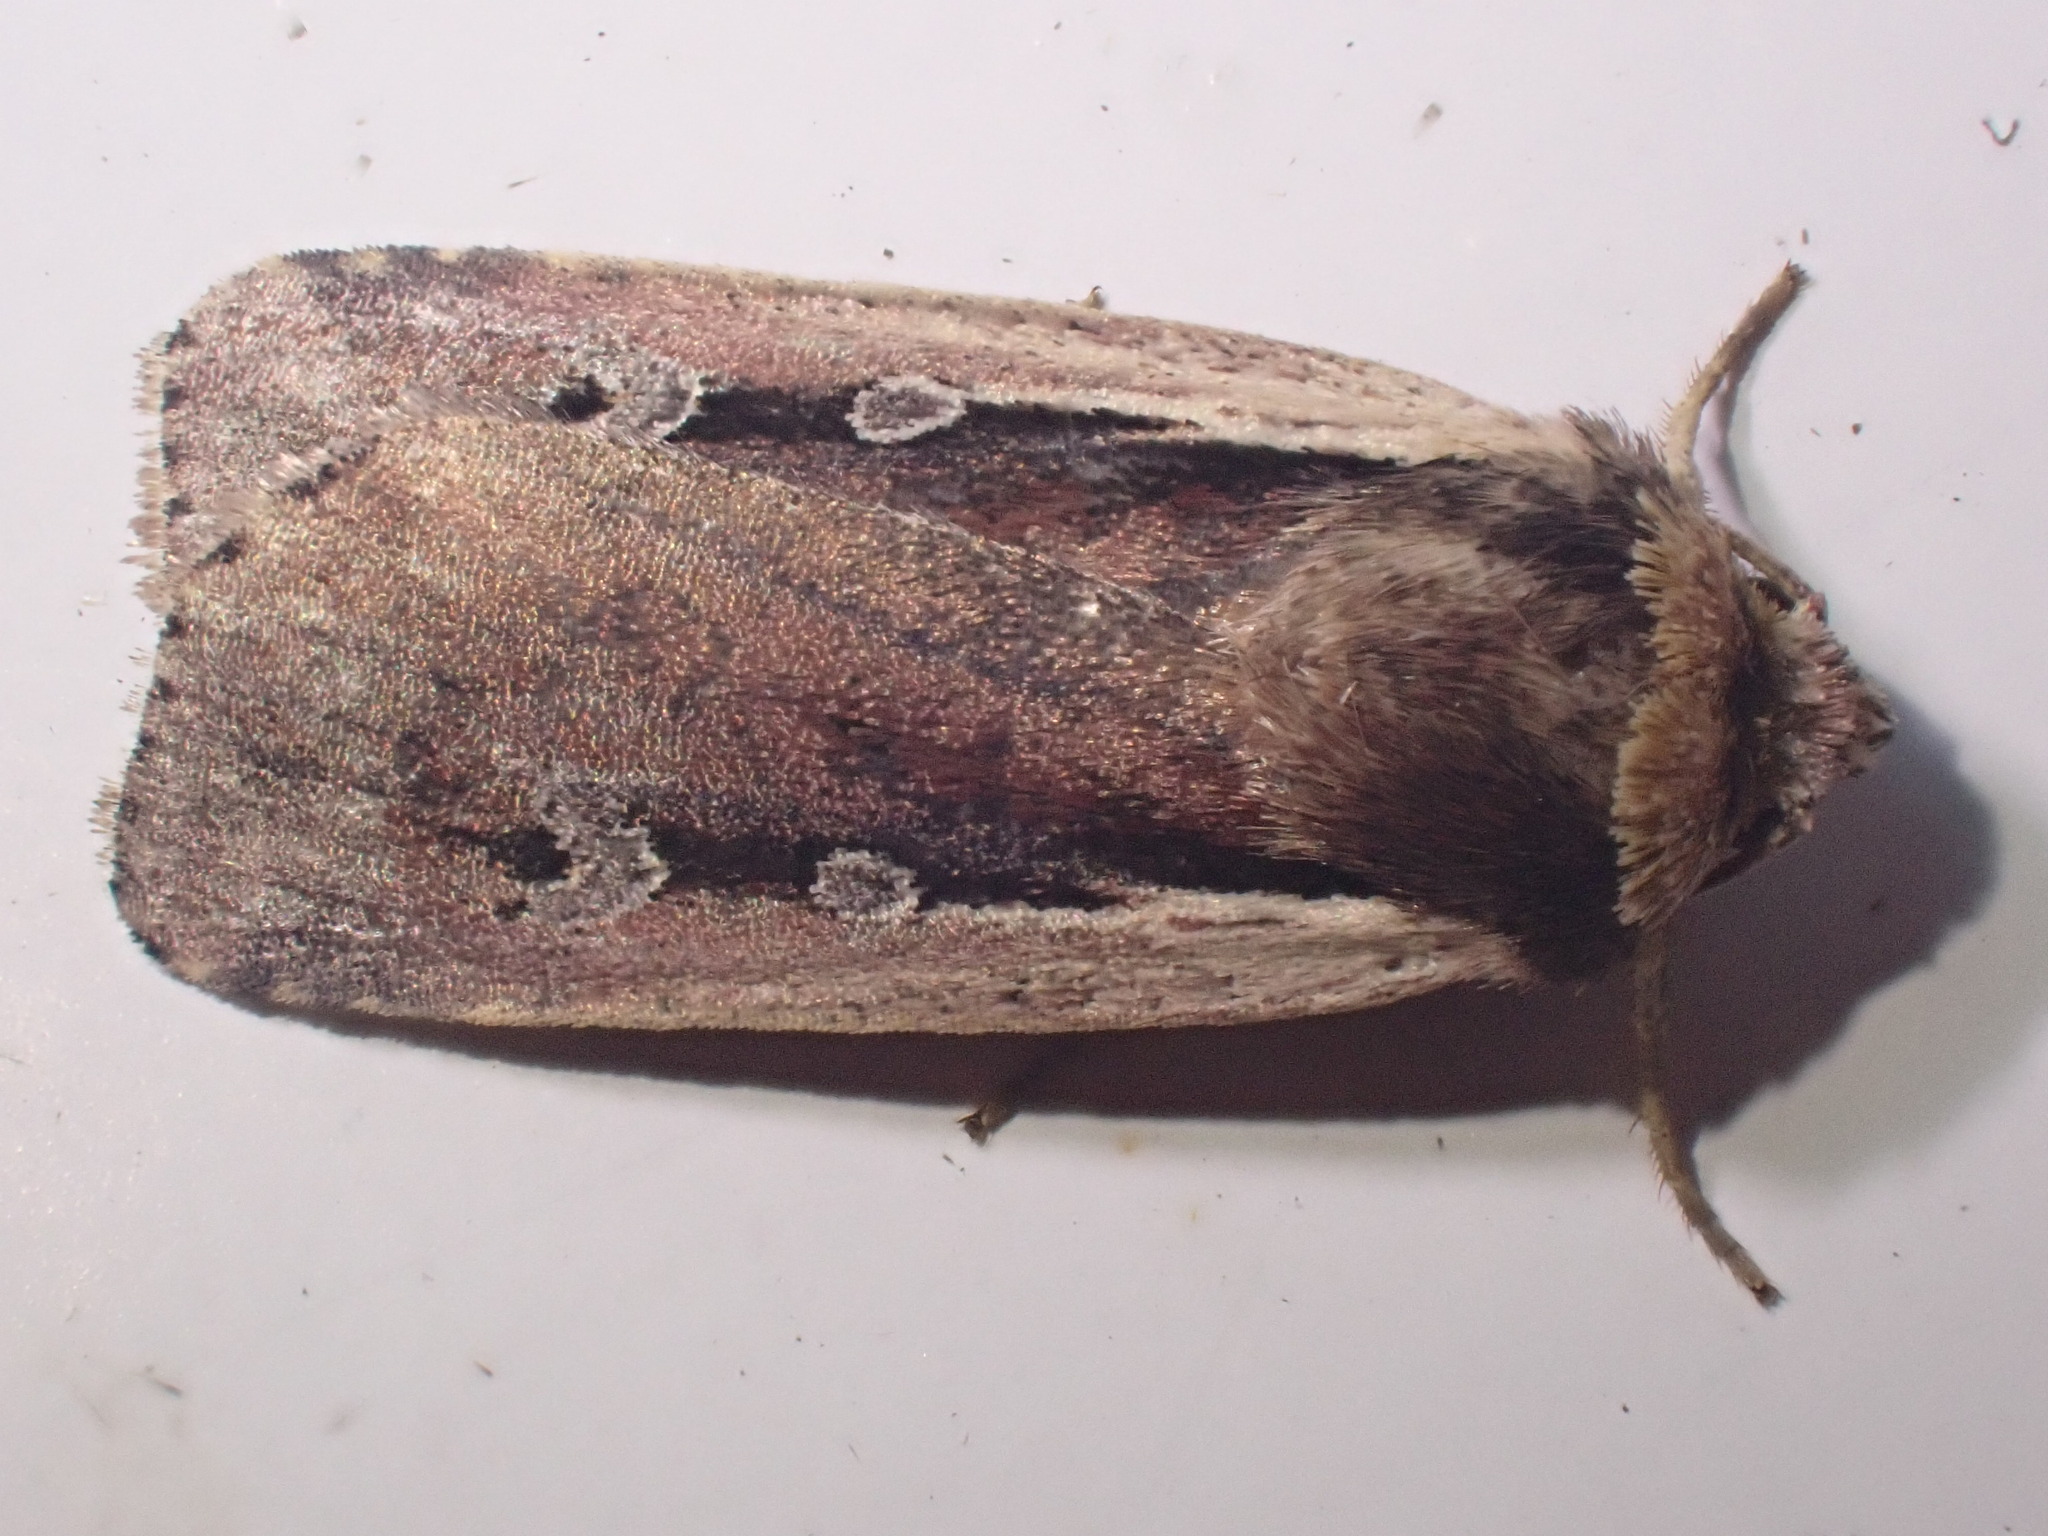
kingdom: Animalia
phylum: Arthropoda
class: Insecta
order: Lepidoptera
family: Noctuidae
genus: Ochropleura
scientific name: Ochropleura plecta
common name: Flame shoulder
